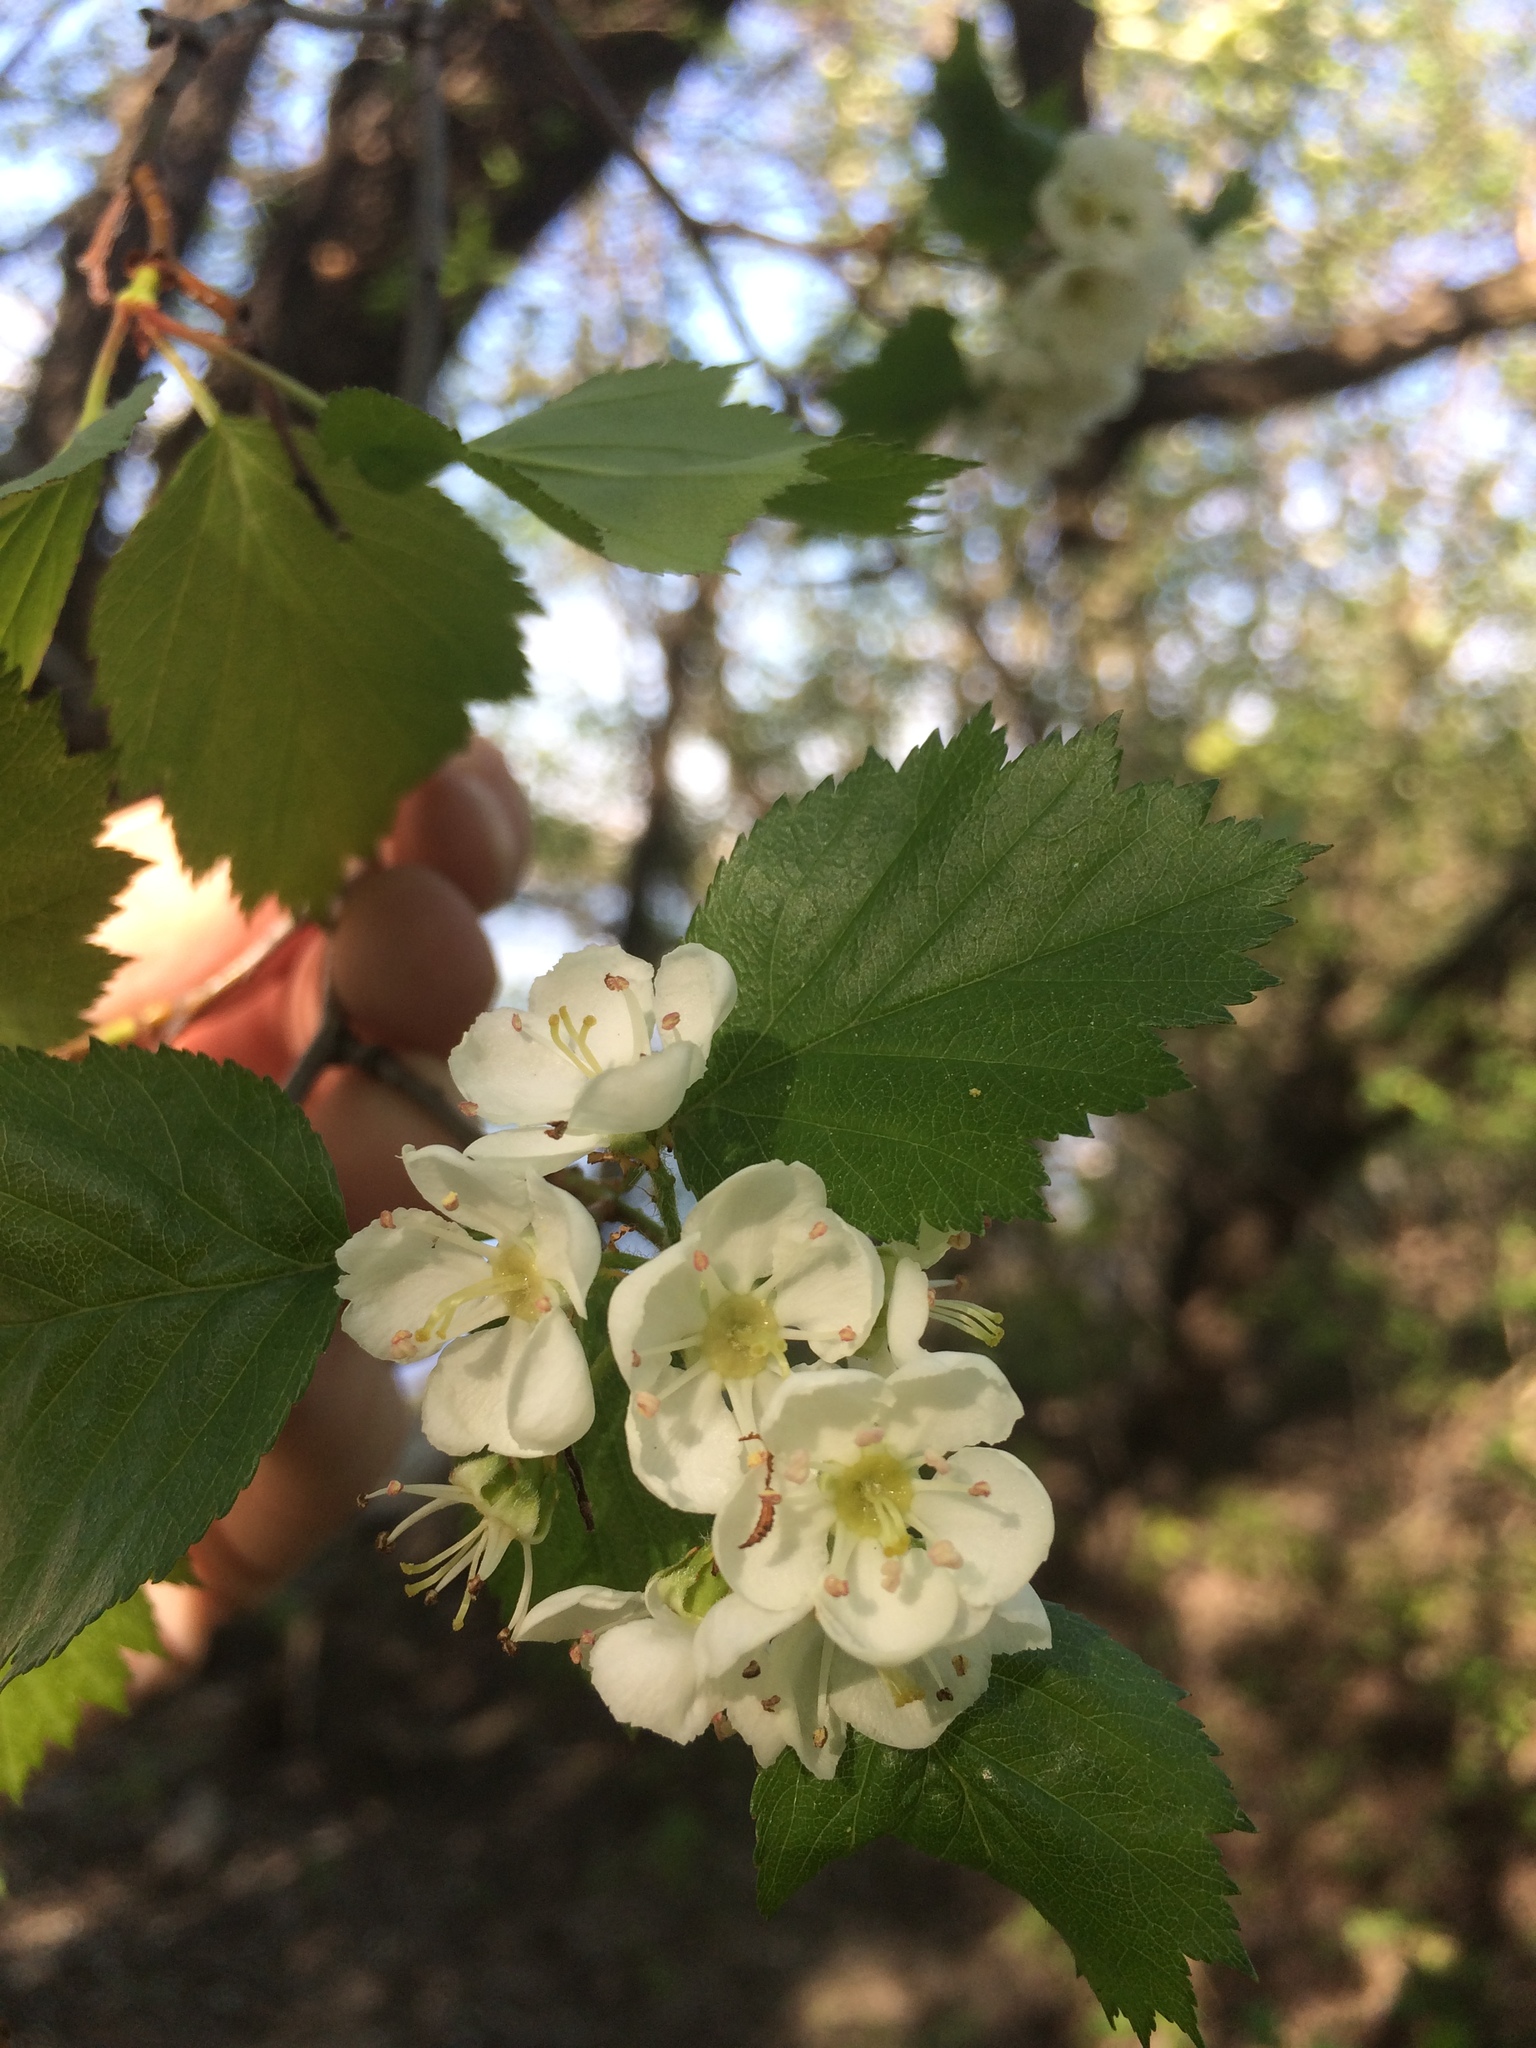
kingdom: Plantae
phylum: Tracheophyta
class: Magnoliopsida
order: Rosales
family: Rosaceae
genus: Crataegus
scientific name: Crataegus flabellata
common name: Bosc's hawthorn
